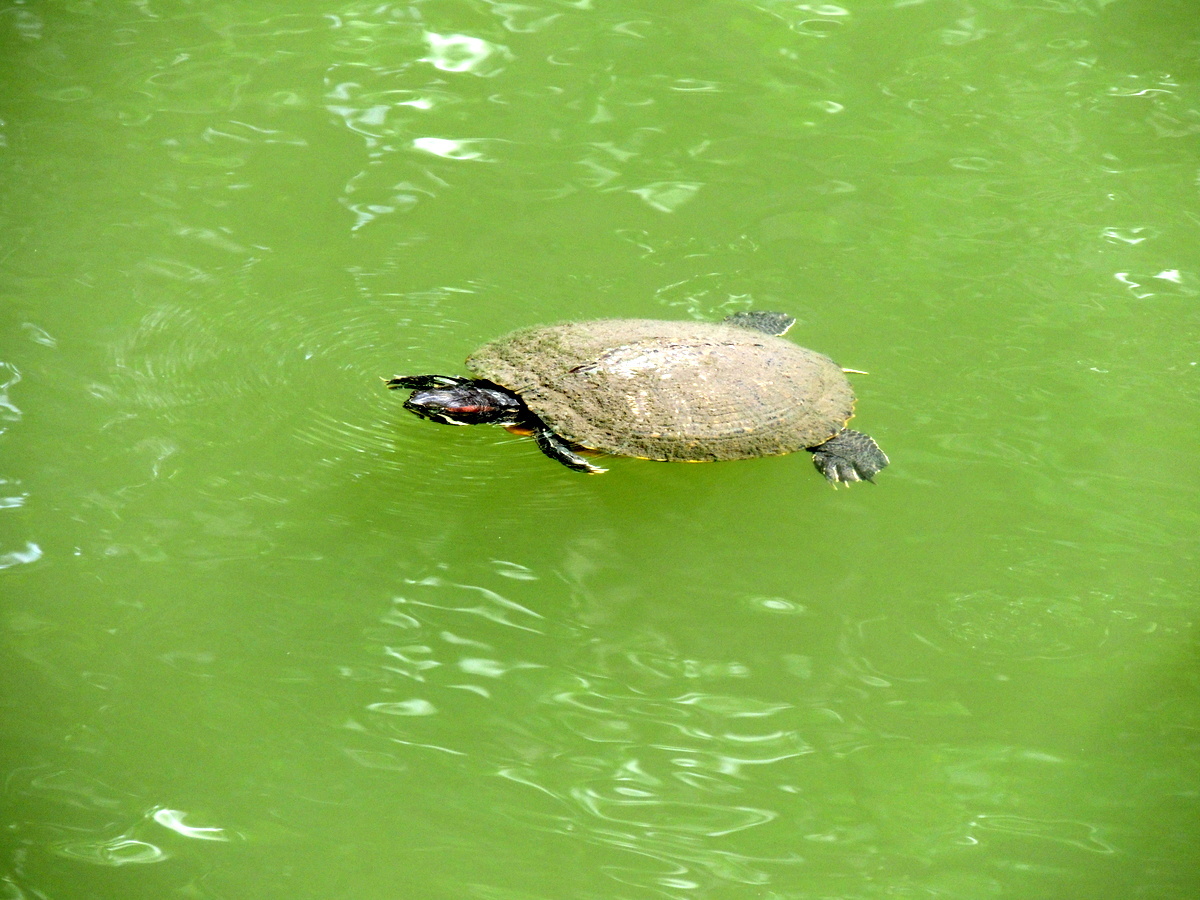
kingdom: Animalia
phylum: Chordata
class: Testudines
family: Emydidae
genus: Trachemys
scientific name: Trachemys scripta
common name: Slider
